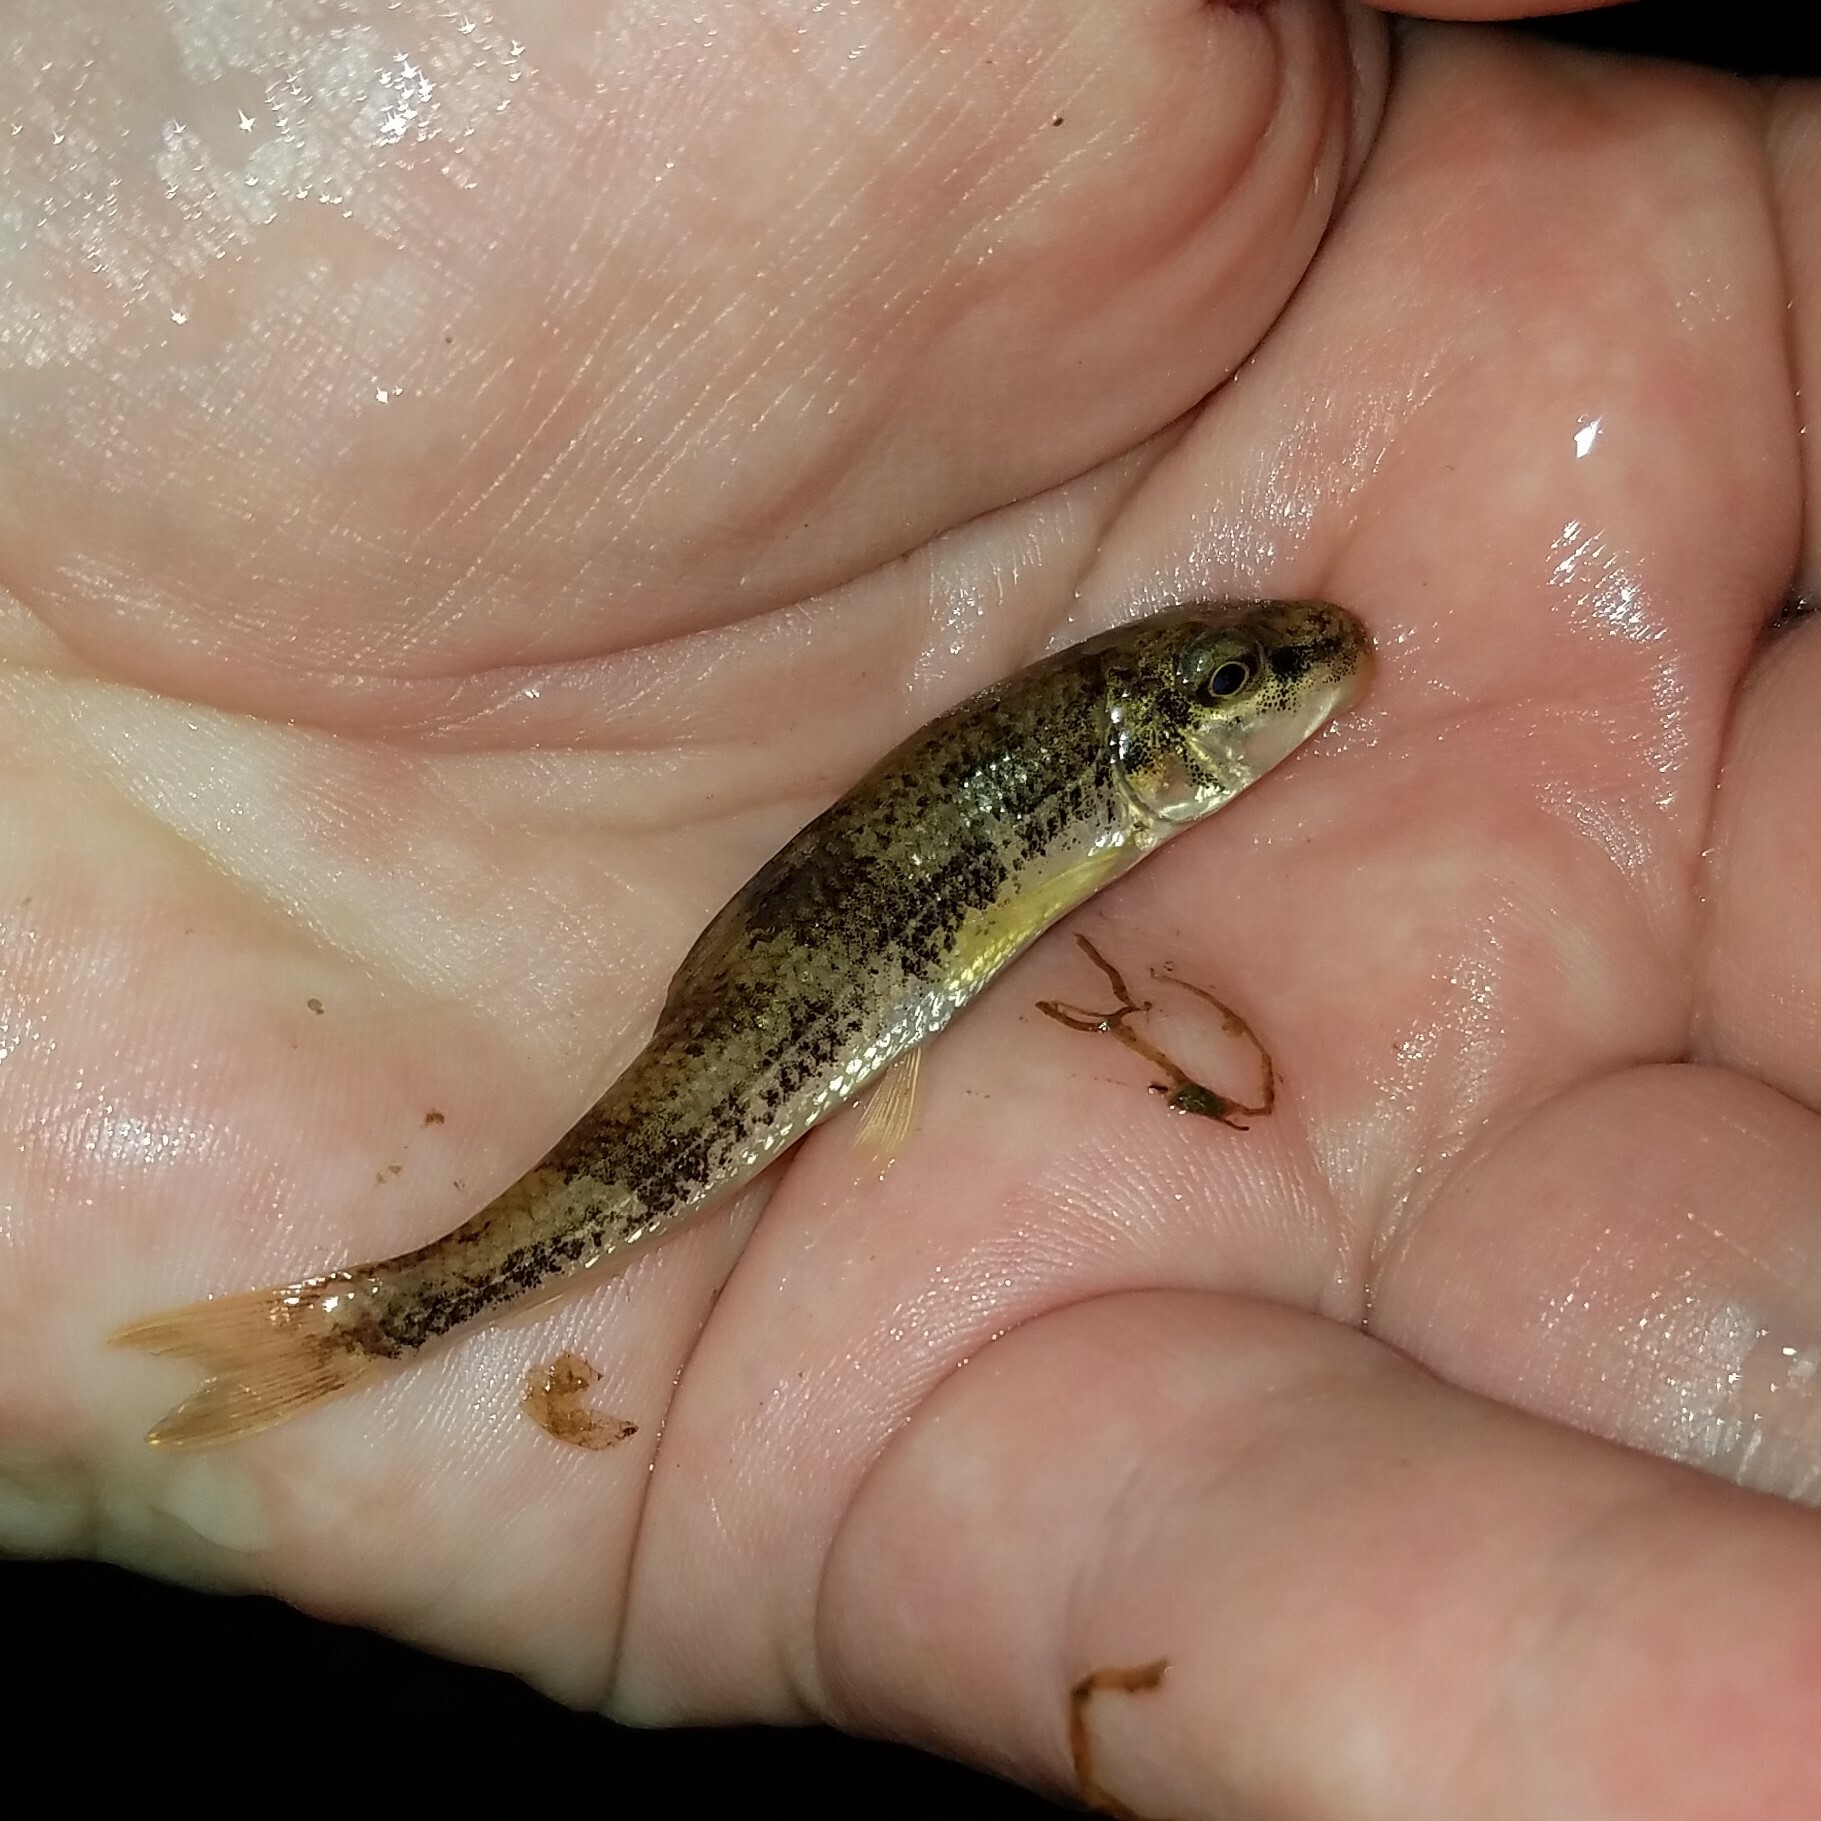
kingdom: Animalia
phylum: Chordata
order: Cypriniformes
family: Catostomidae
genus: Hypentelium
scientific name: Hypentelium etowanum
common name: Alabama hog sucker
